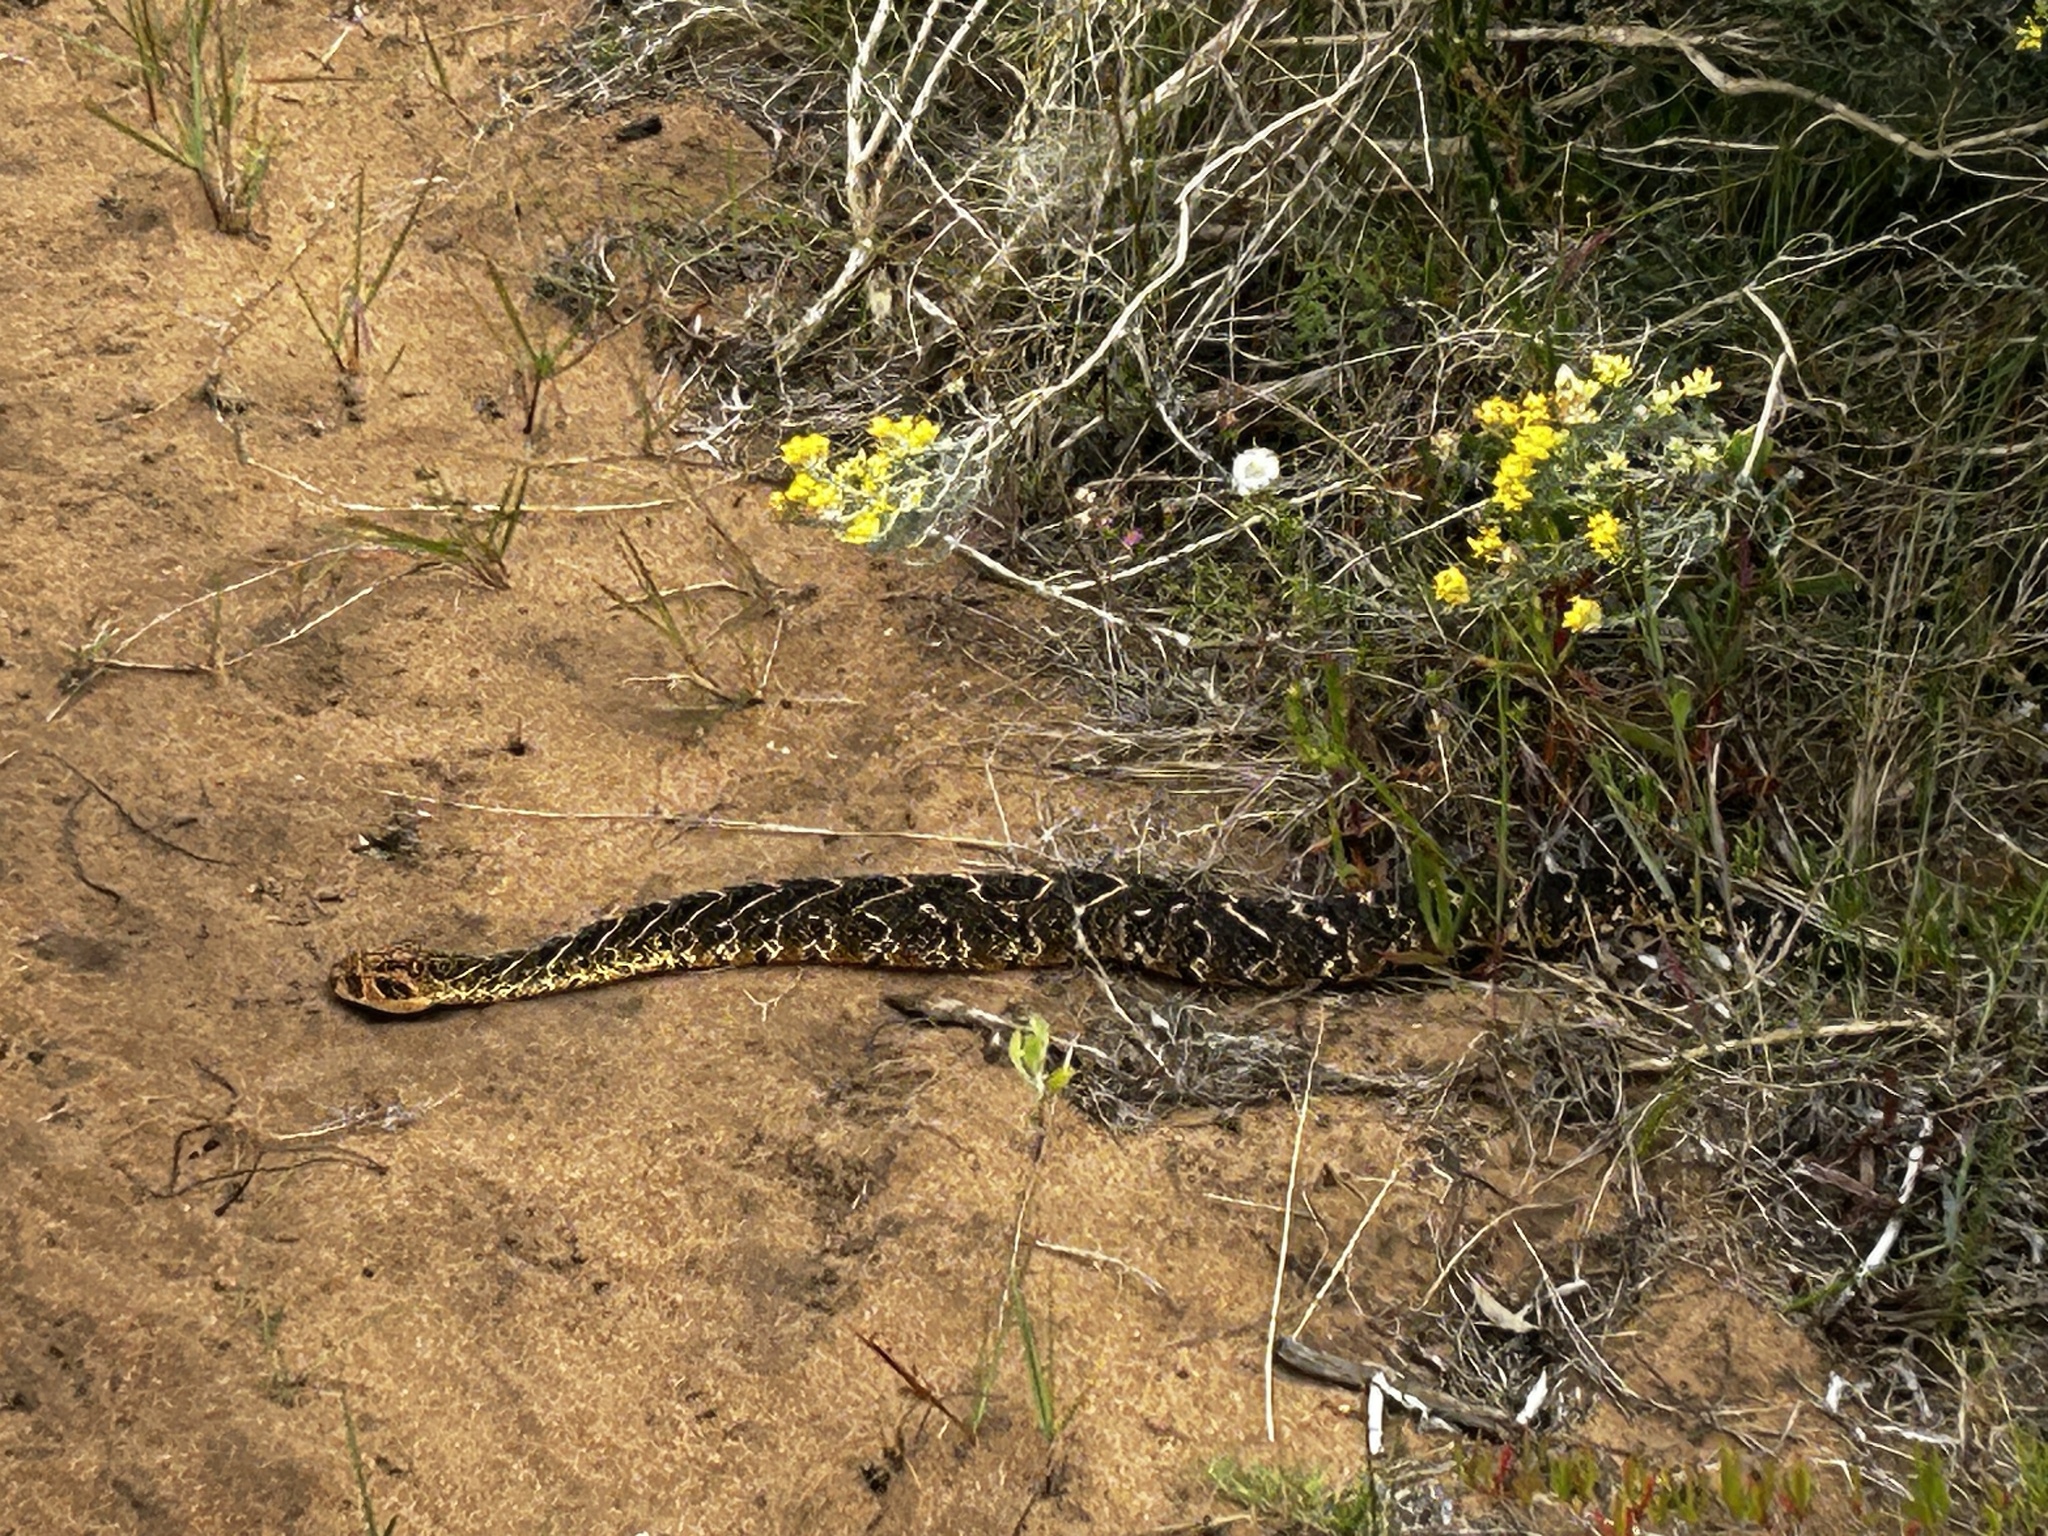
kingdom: Animalia
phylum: Chordata
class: Squamata
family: Viperidae
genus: Bitis
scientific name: Bitis arietans
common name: Puff adder
